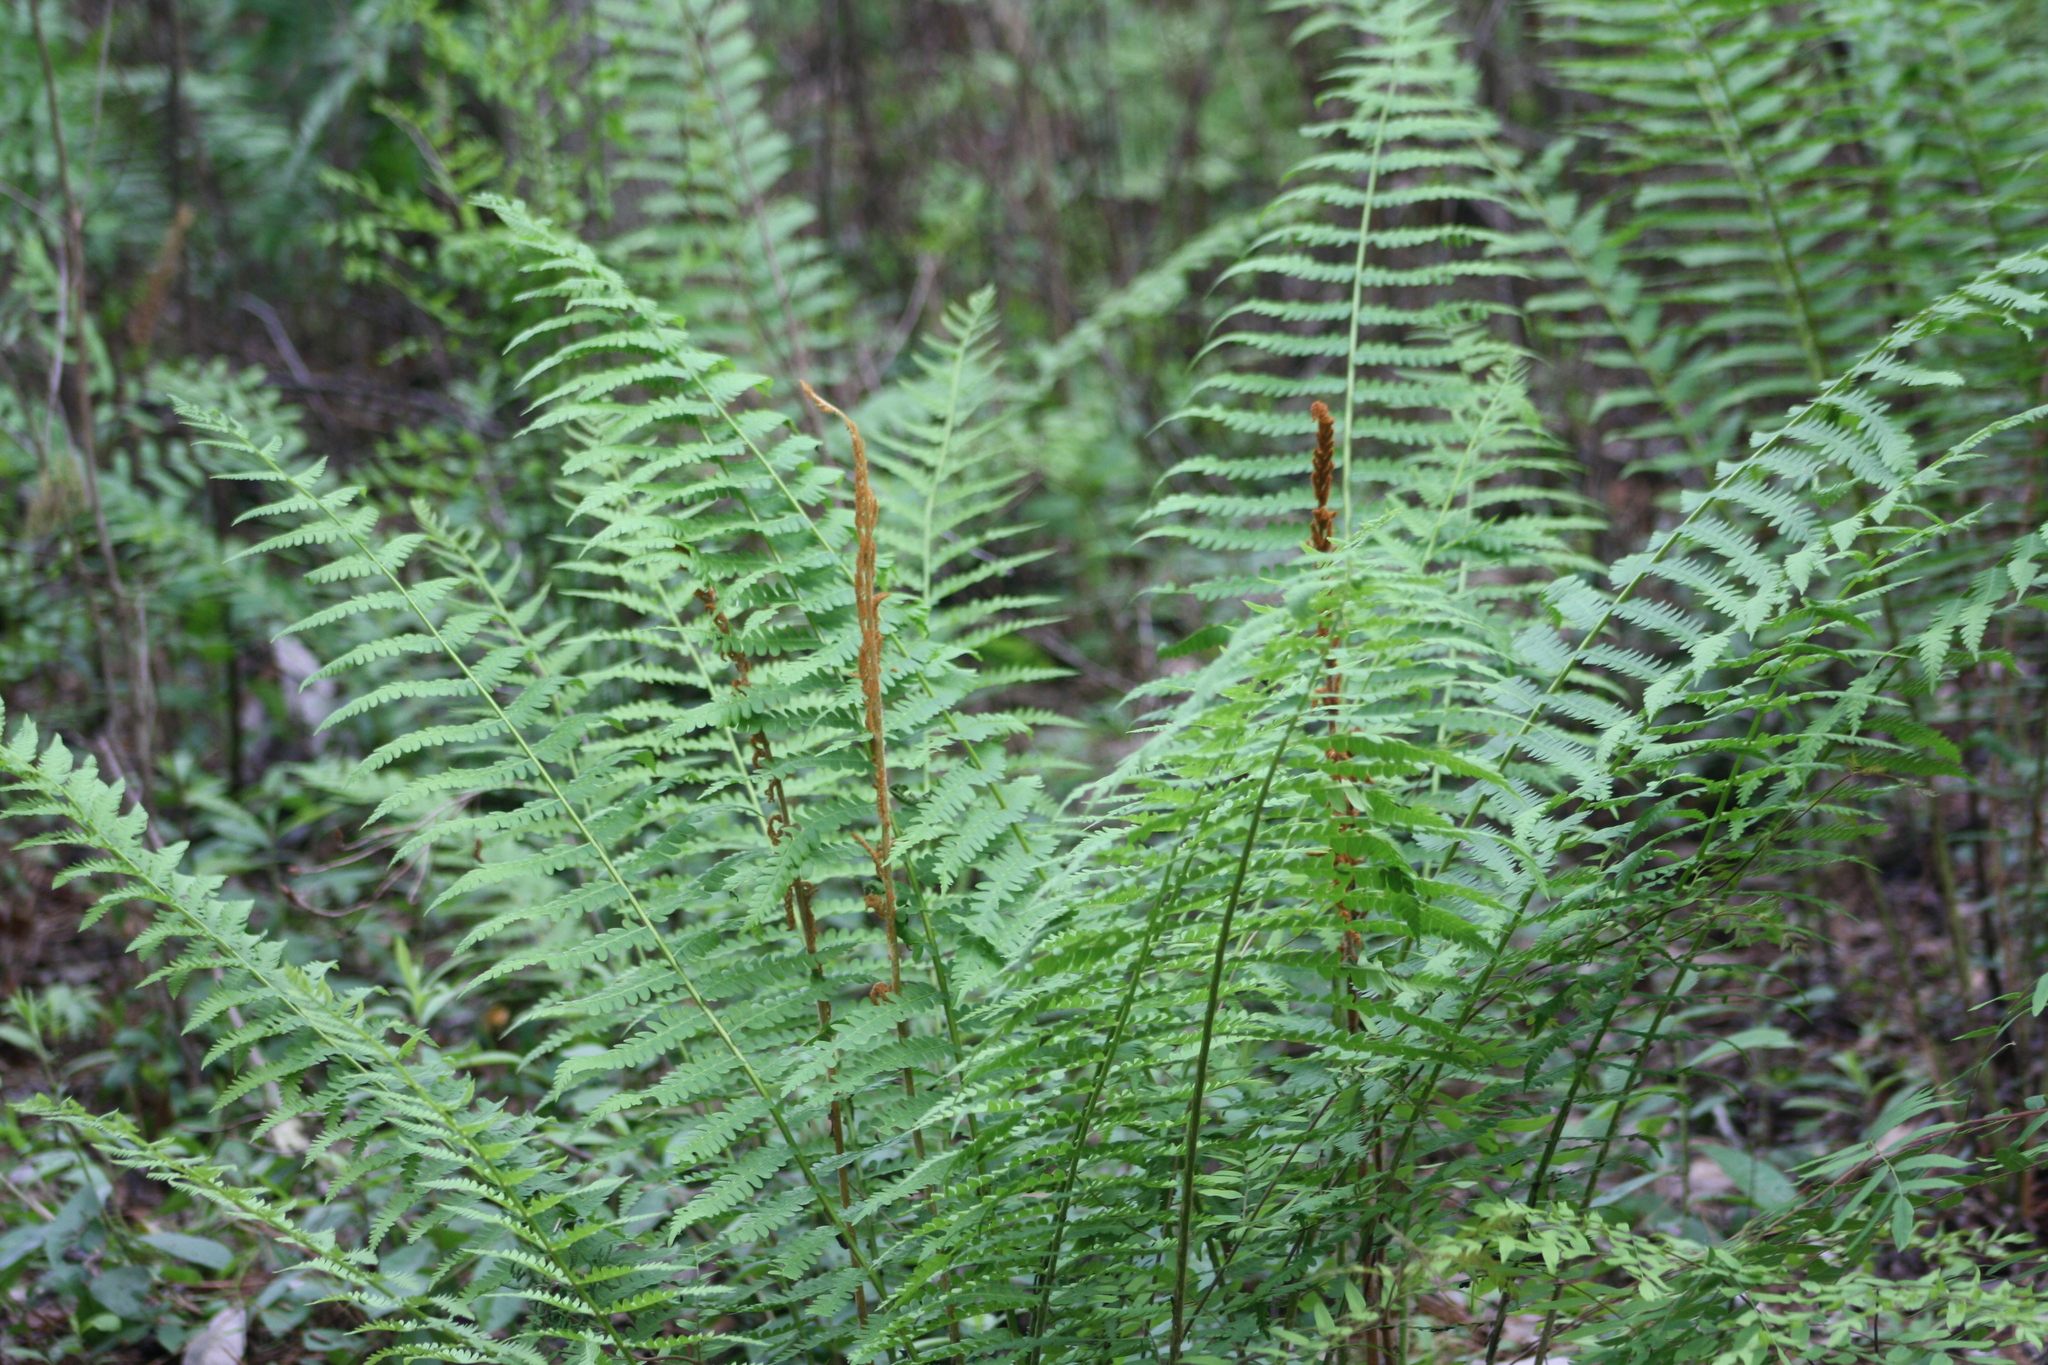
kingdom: Plantae
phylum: Tracheophyta
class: Polypodiopsida
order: Osmundales
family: Osmundaceae
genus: Osmundastrum
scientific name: Osmundastrum cinnamomeum
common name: Cinnamon fern
